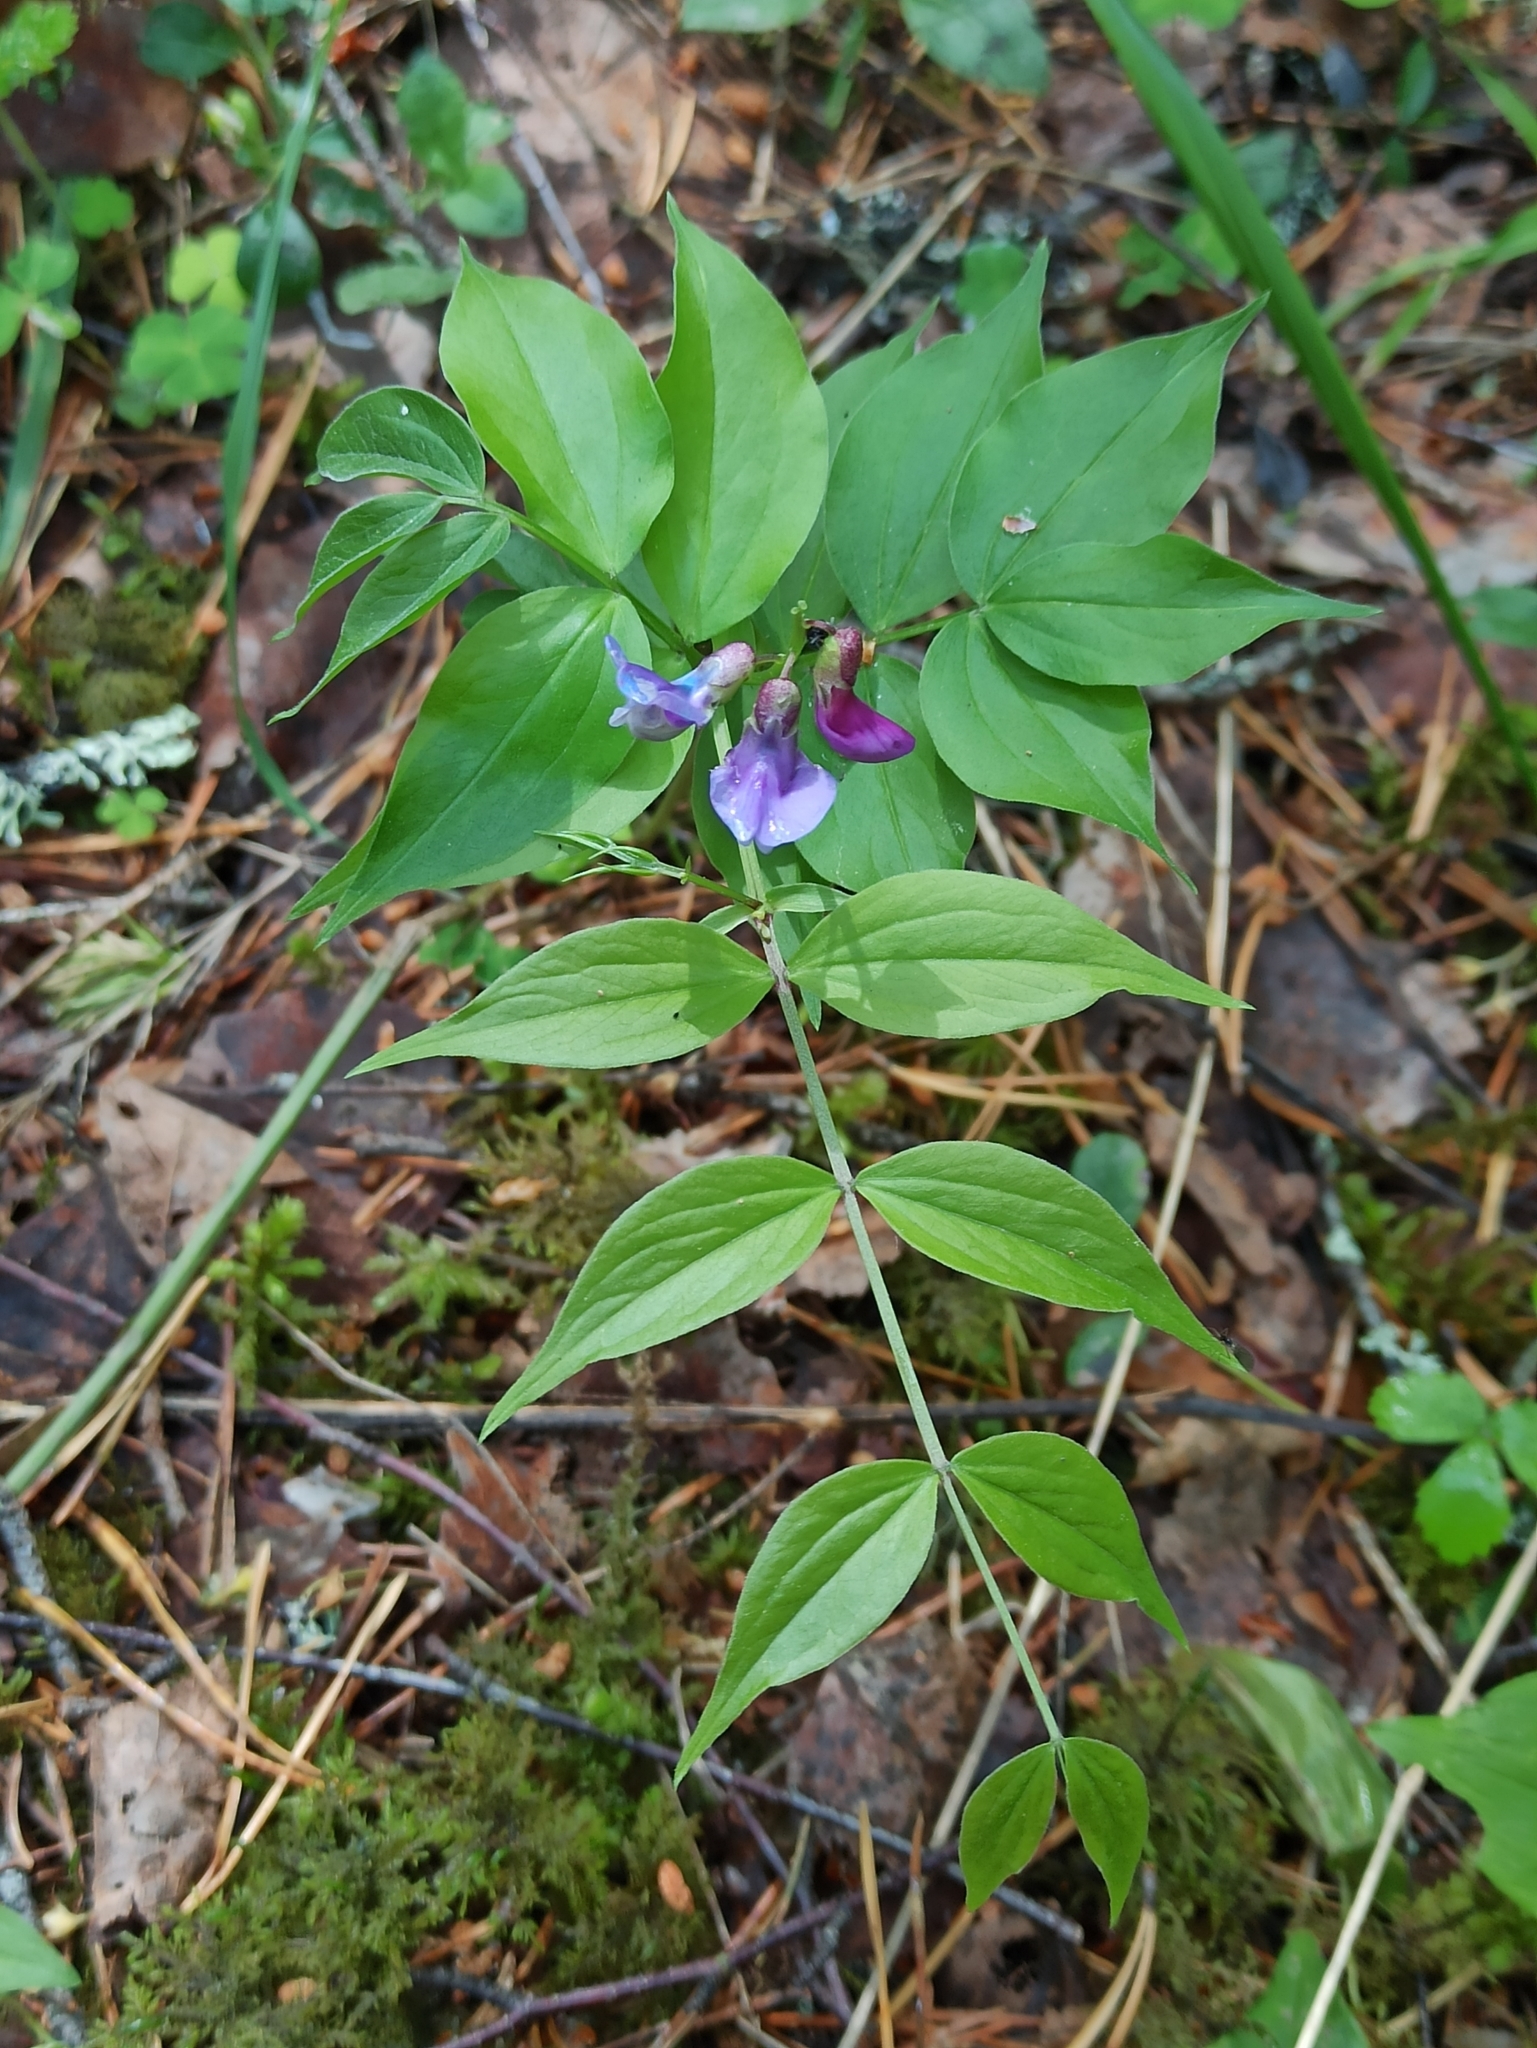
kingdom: Plantae
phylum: Tracheophyta
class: Magnoliopsida
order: Fabales
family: Fabaceae
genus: Lathyrus
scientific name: Lathyrus vernus
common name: Spring pea
